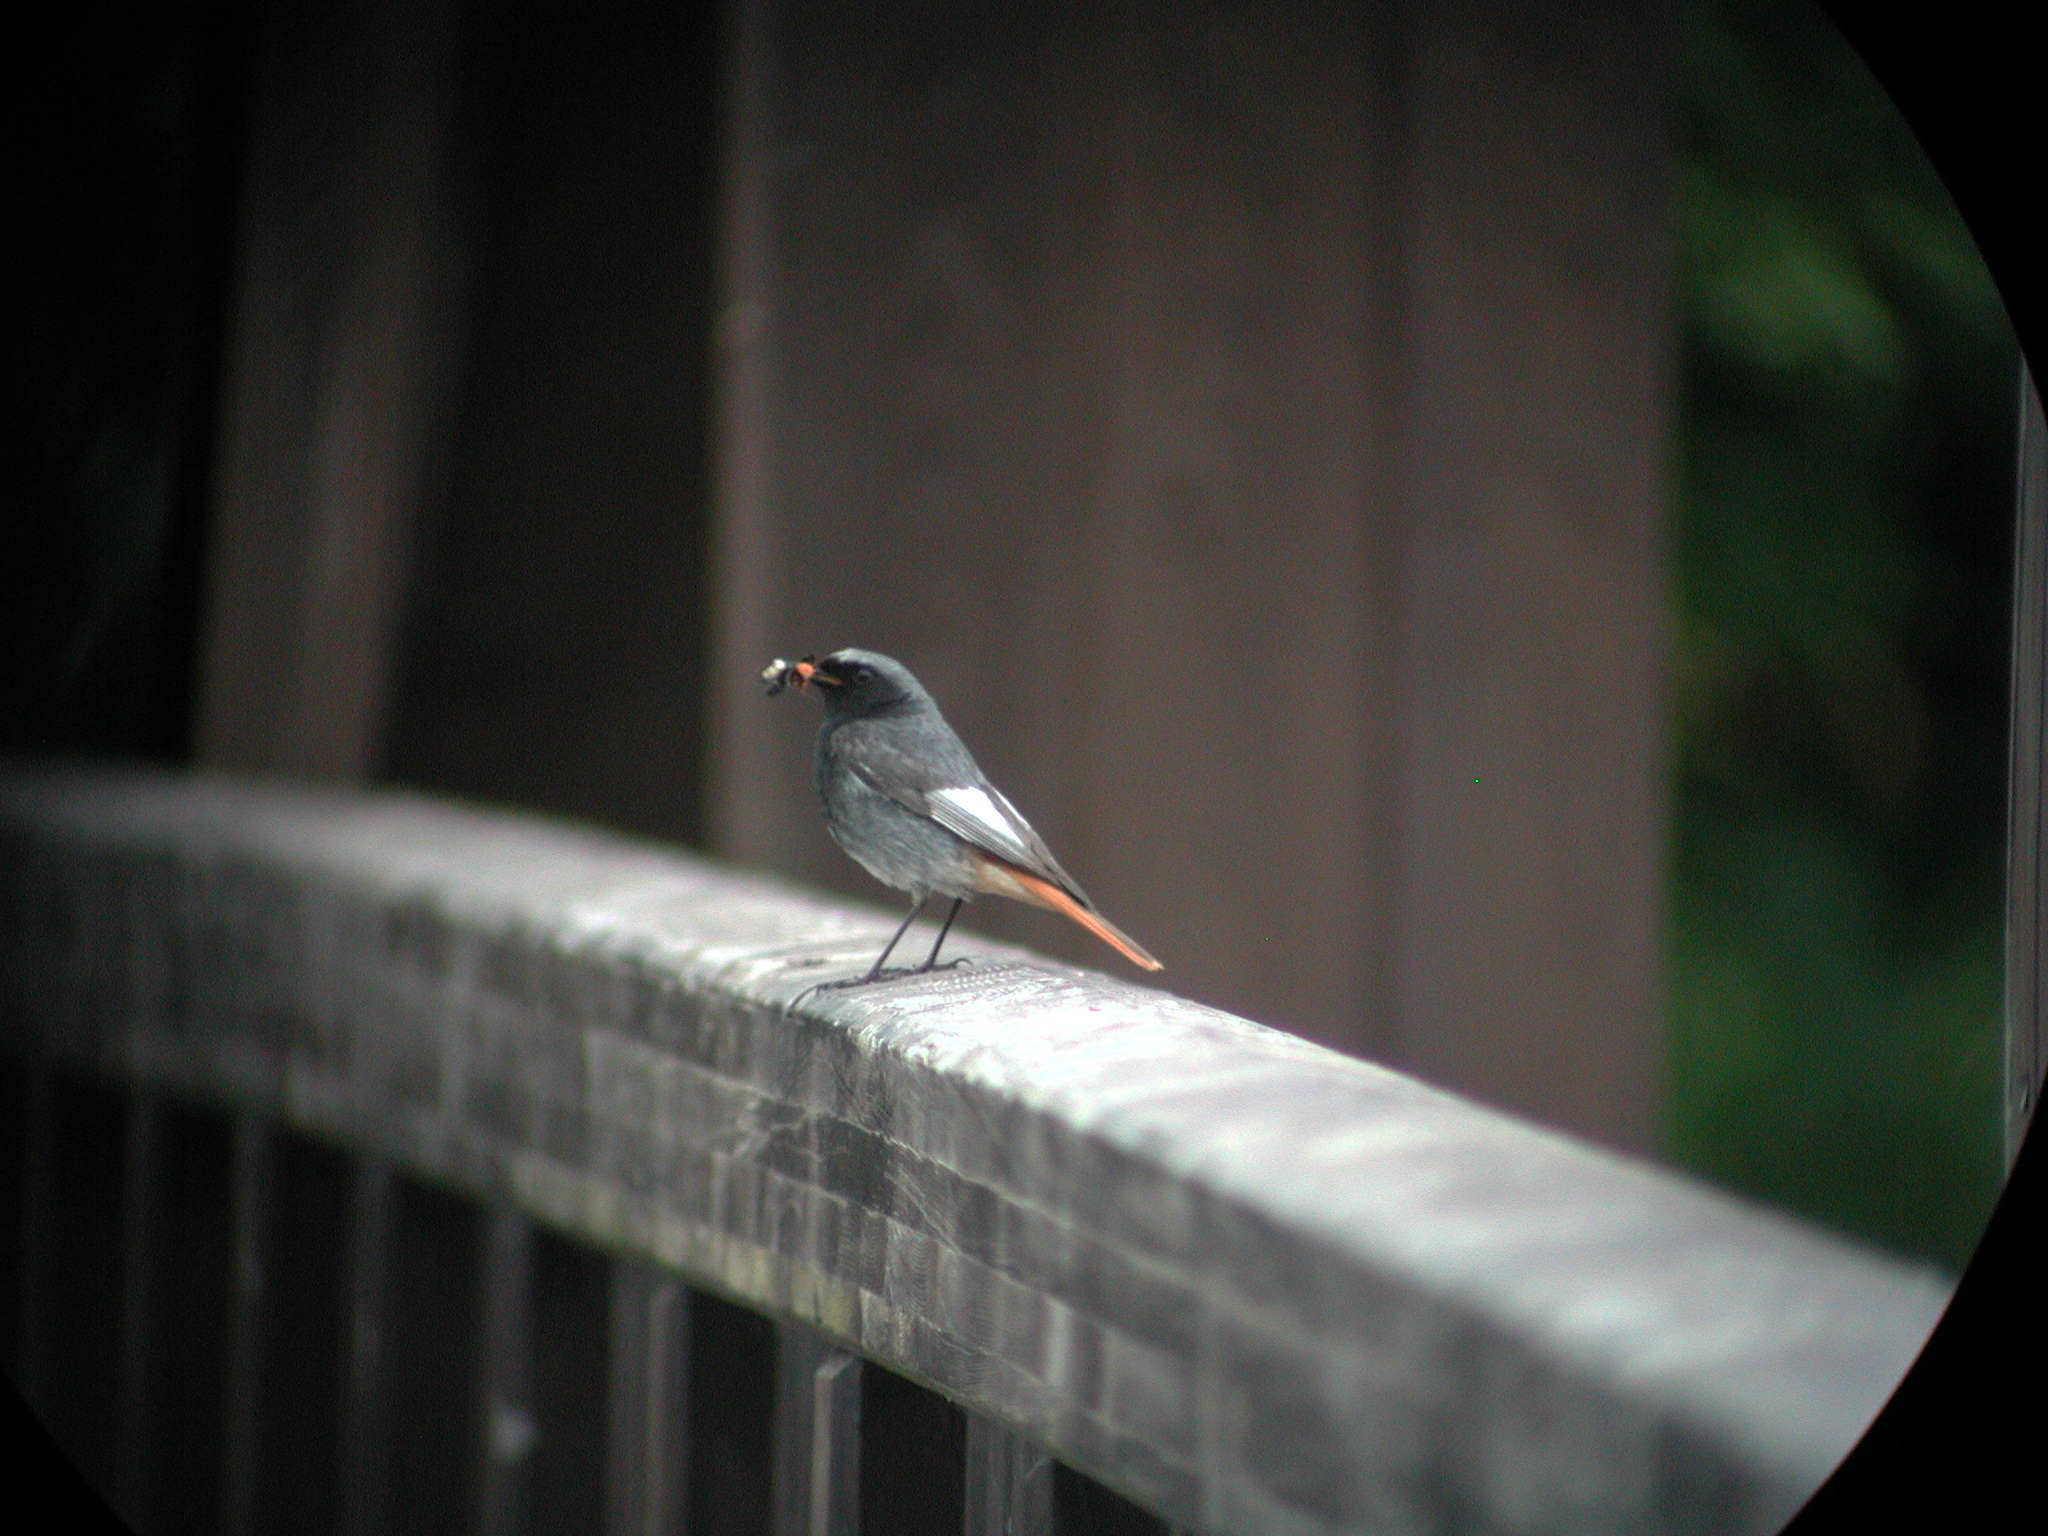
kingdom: Animalia
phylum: Chordata
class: Aves
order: Passeriformes
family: Muscicapidae
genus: Phoenicurus
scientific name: Phoenicurus ochruros
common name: Black redstart
